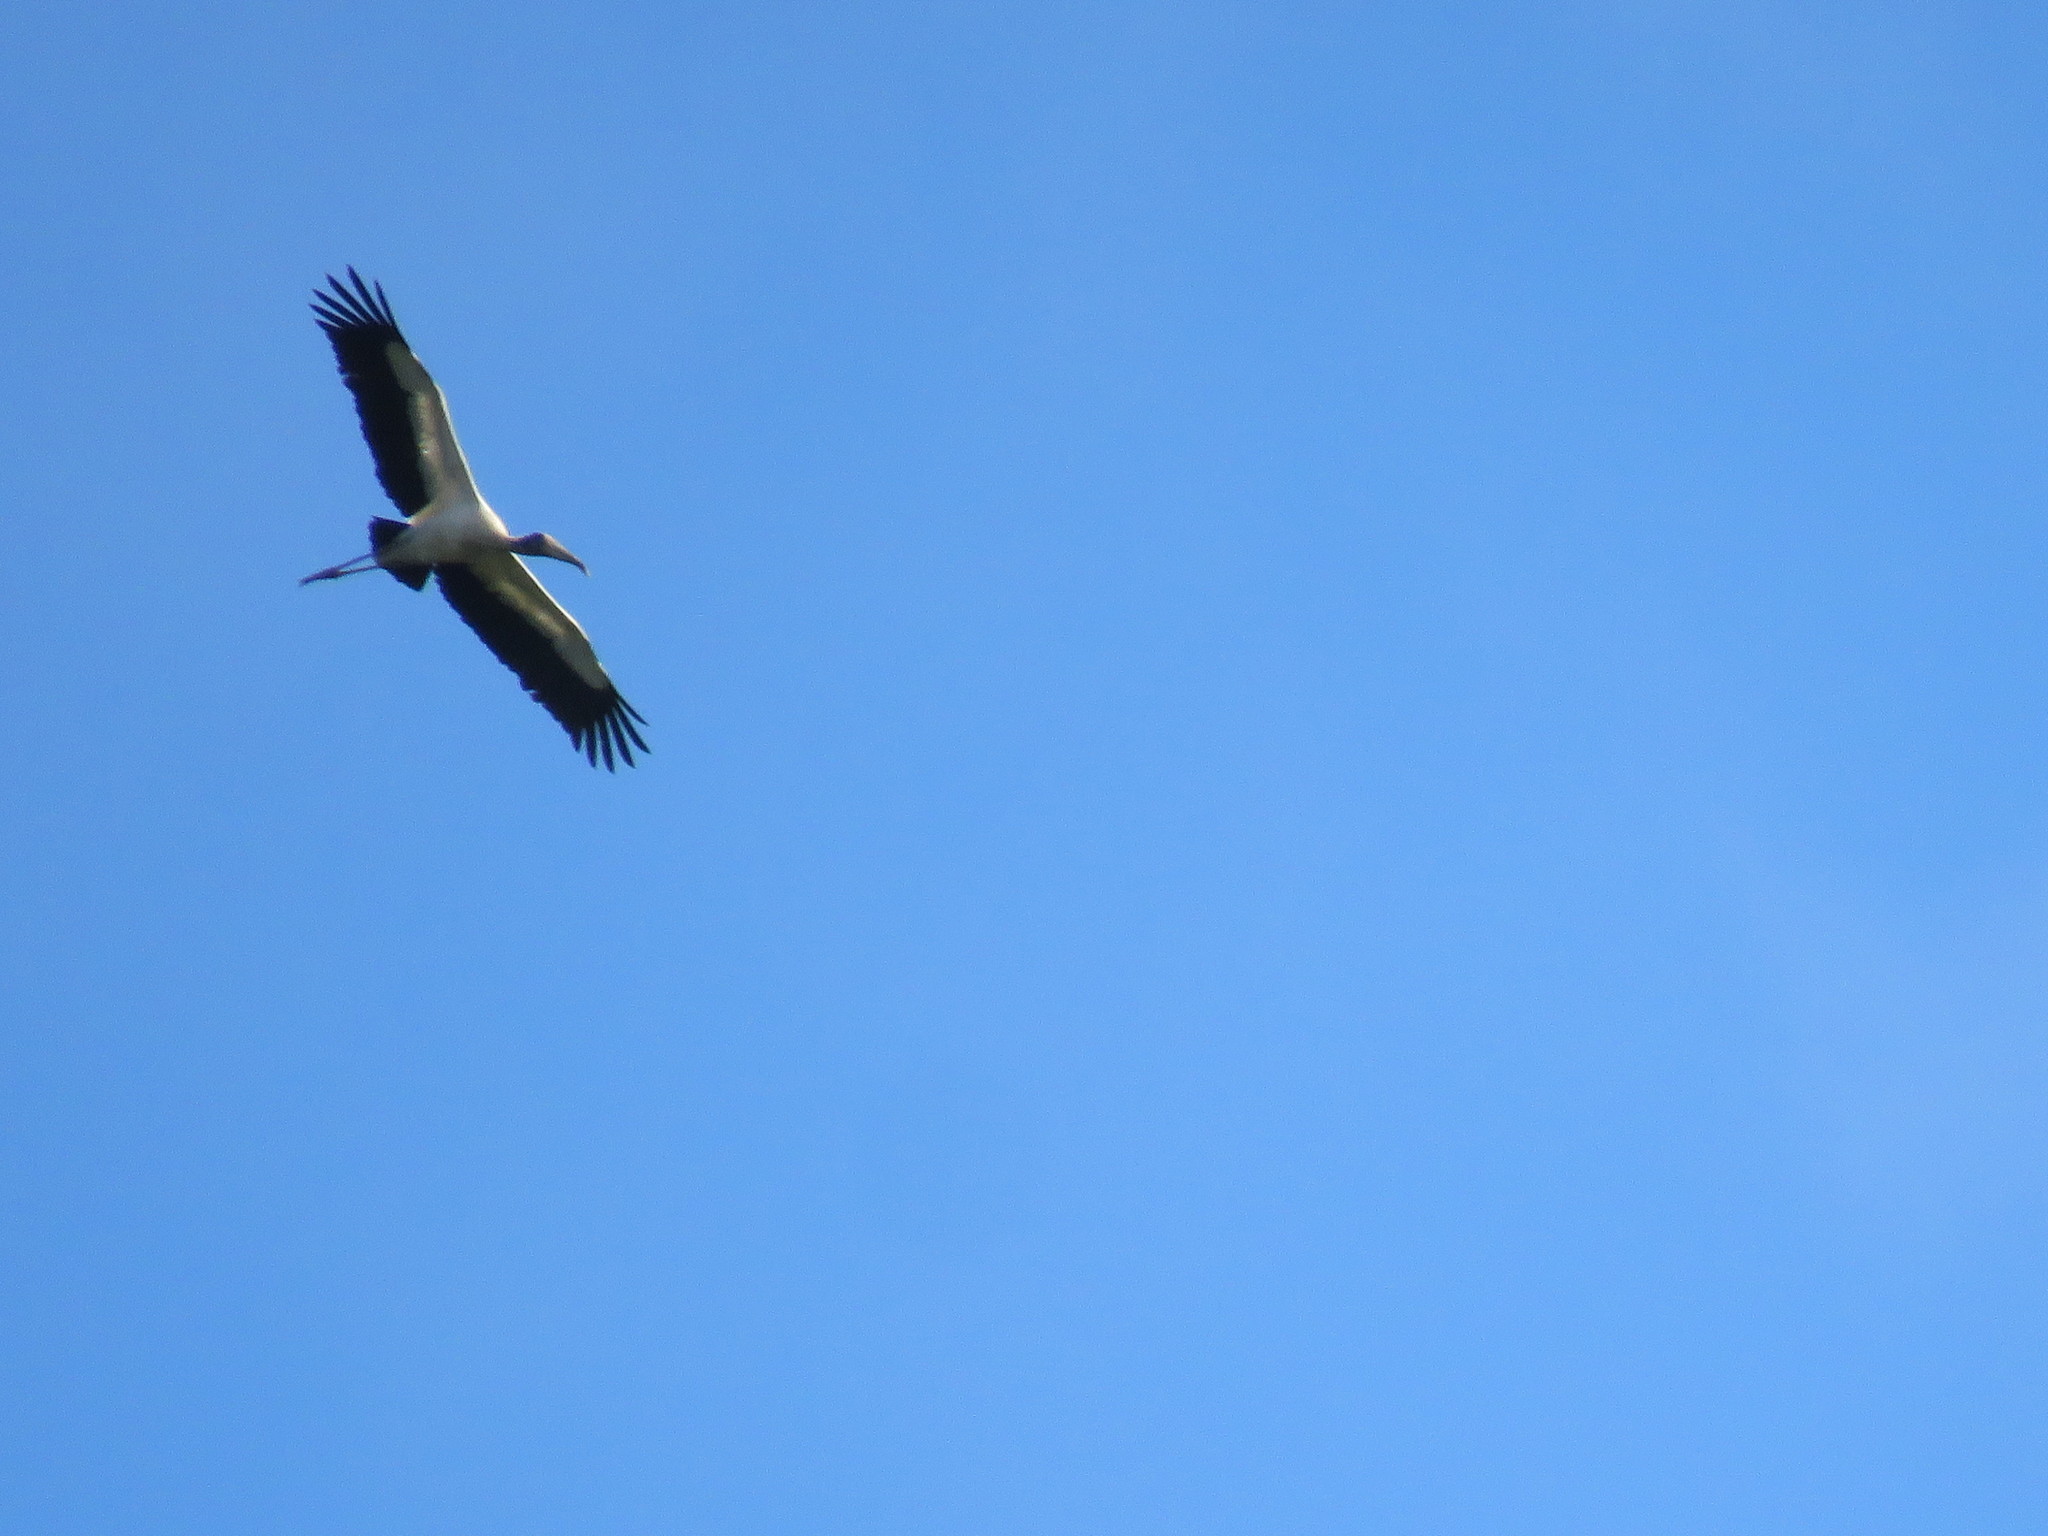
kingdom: Animalia
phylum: Chordata
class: Aves
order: Ciconiiformes
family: Ciconiidae
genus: Mycteria
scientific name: Mycteria americana
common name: Wood stork
